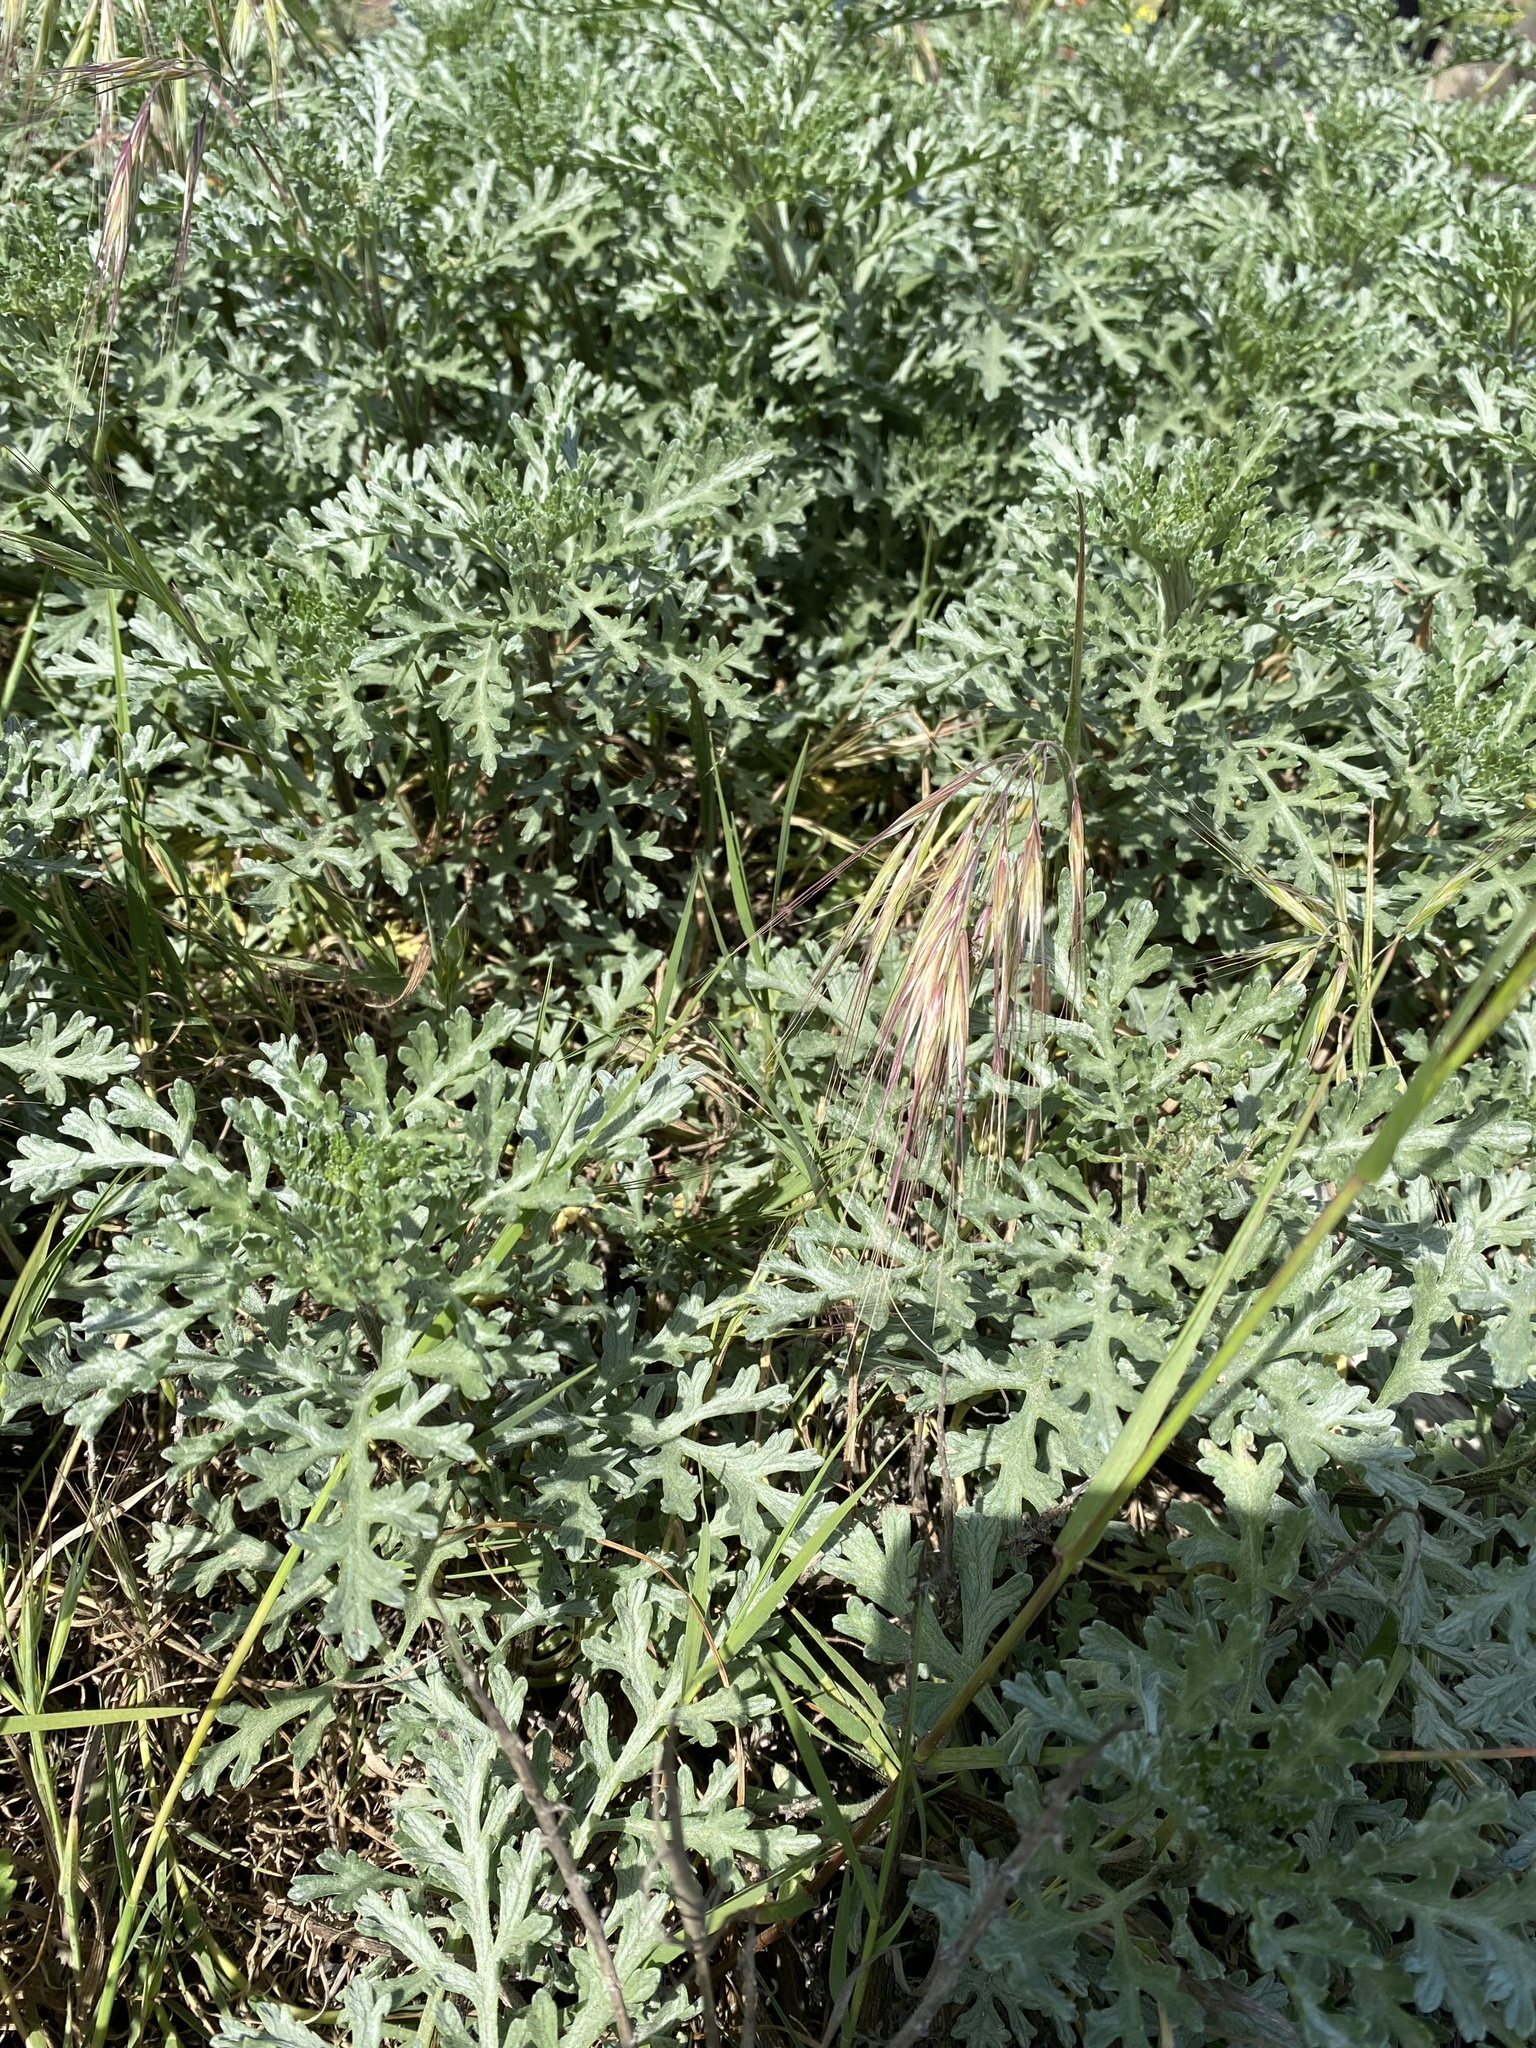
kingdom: Plantae
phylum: Tracheophyta
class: Magnoliopsida
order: Asterales
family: Asteraceae
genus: Ambrosia
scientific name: Ambrosia chamissonis
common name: Beachbur
